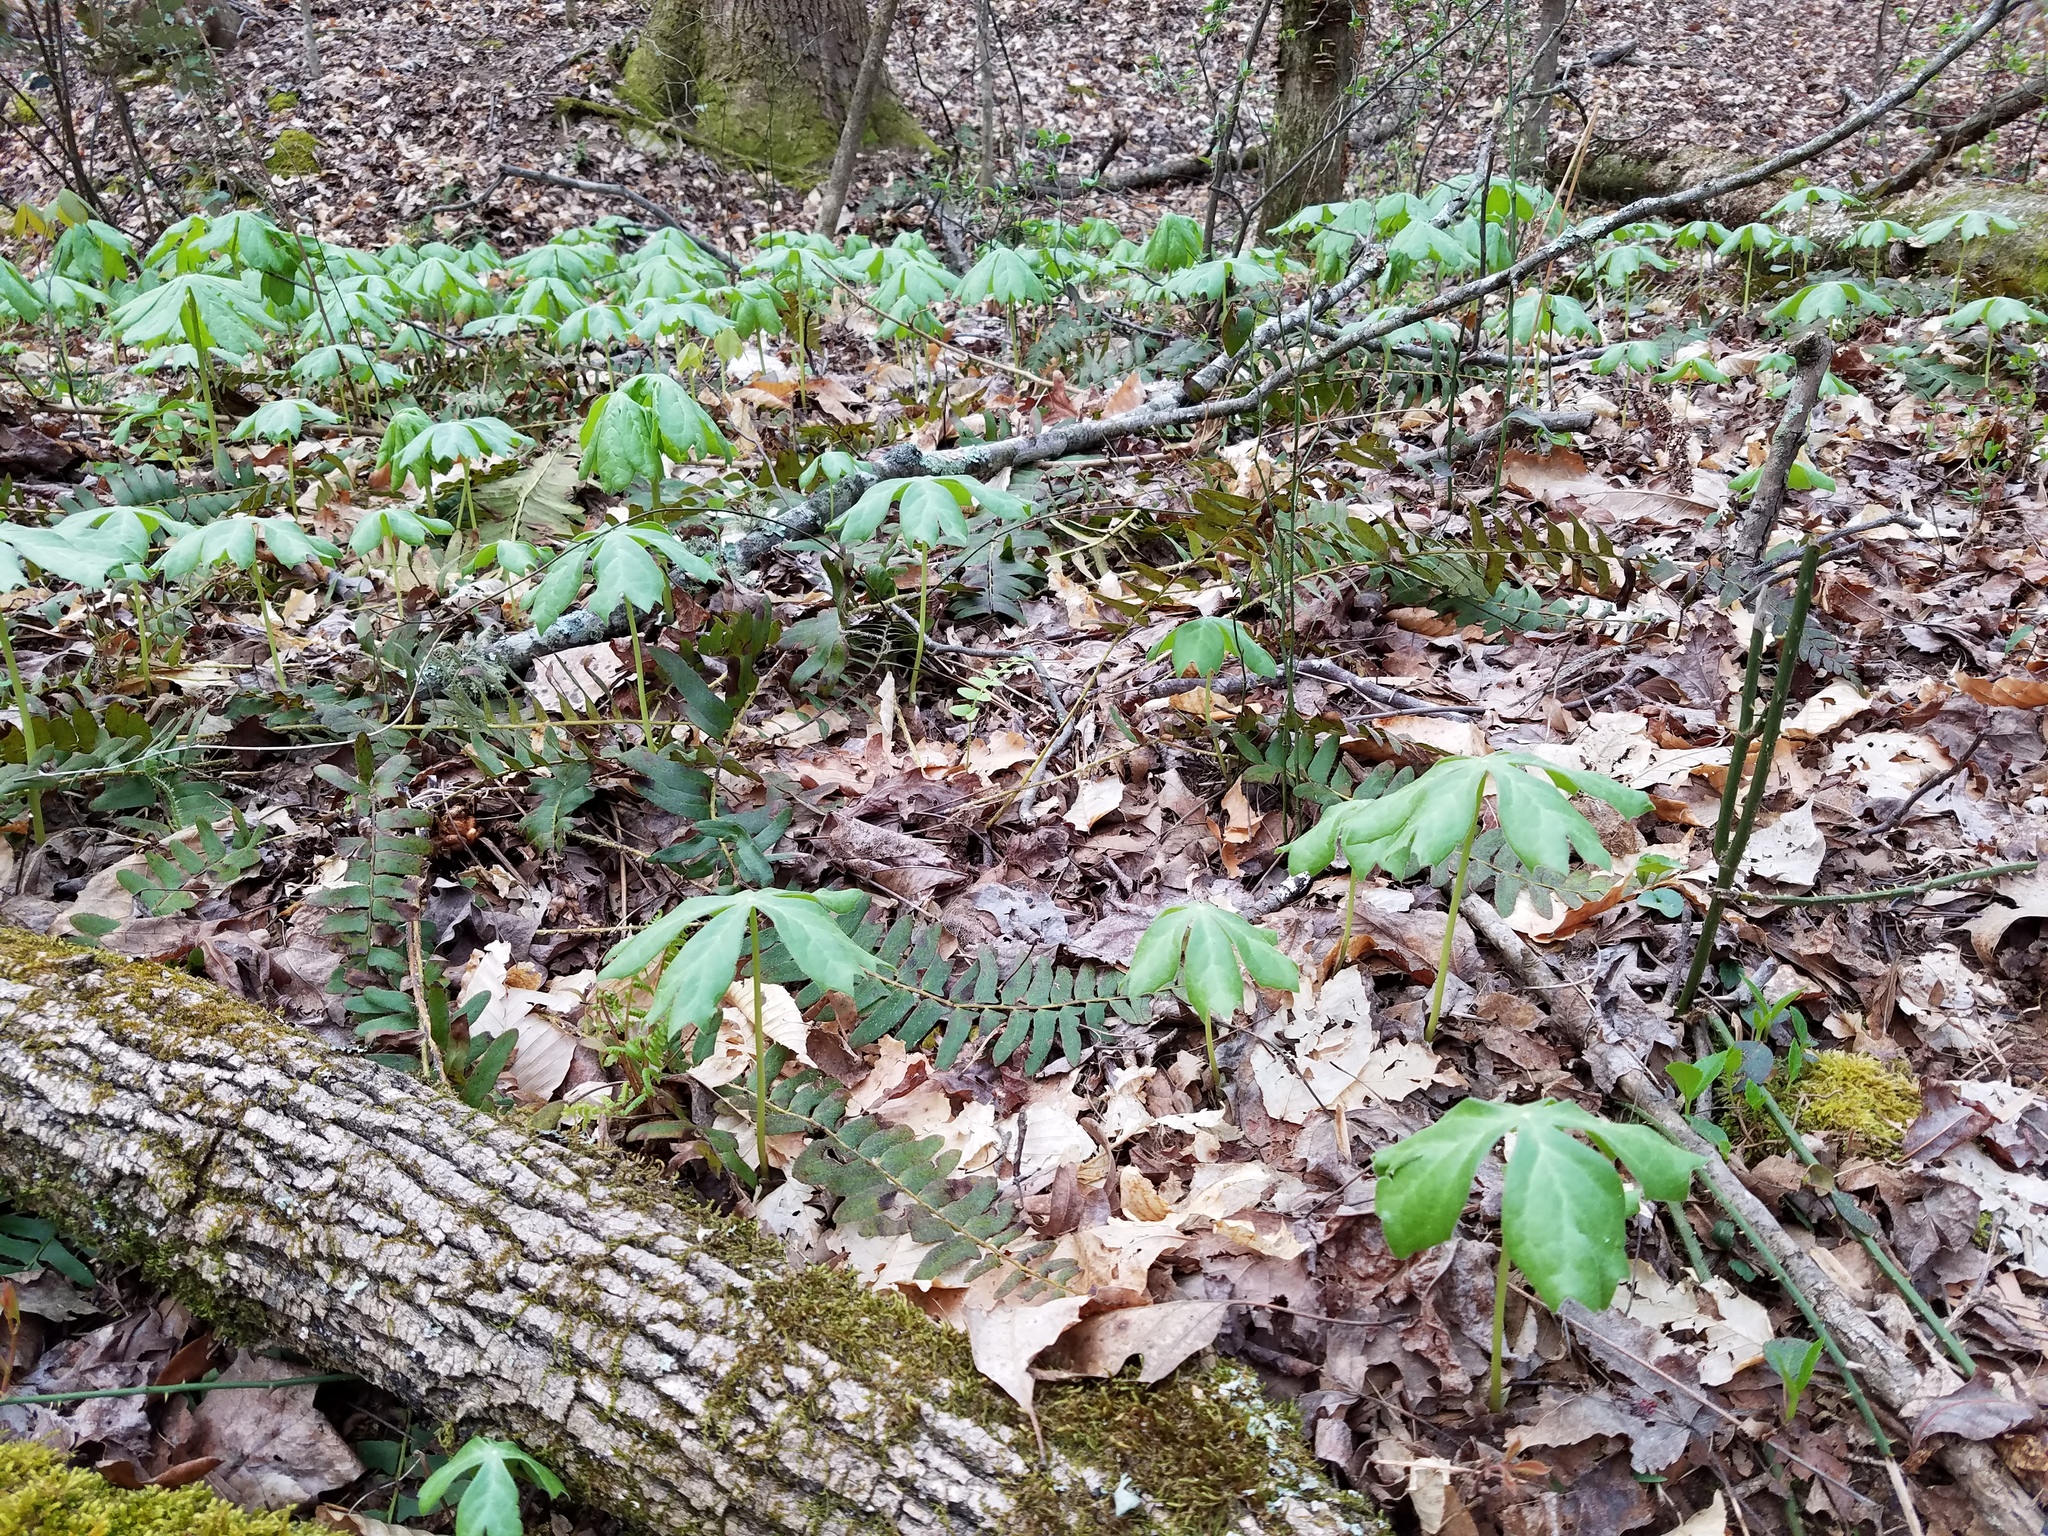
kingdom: Plantae
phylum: Tracheophyta
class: Magnoliopsida
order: Ranunculales
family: Berberidaceae
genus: Podophyllum
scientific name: Podophyllum peltatum
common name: Wild mandrake
